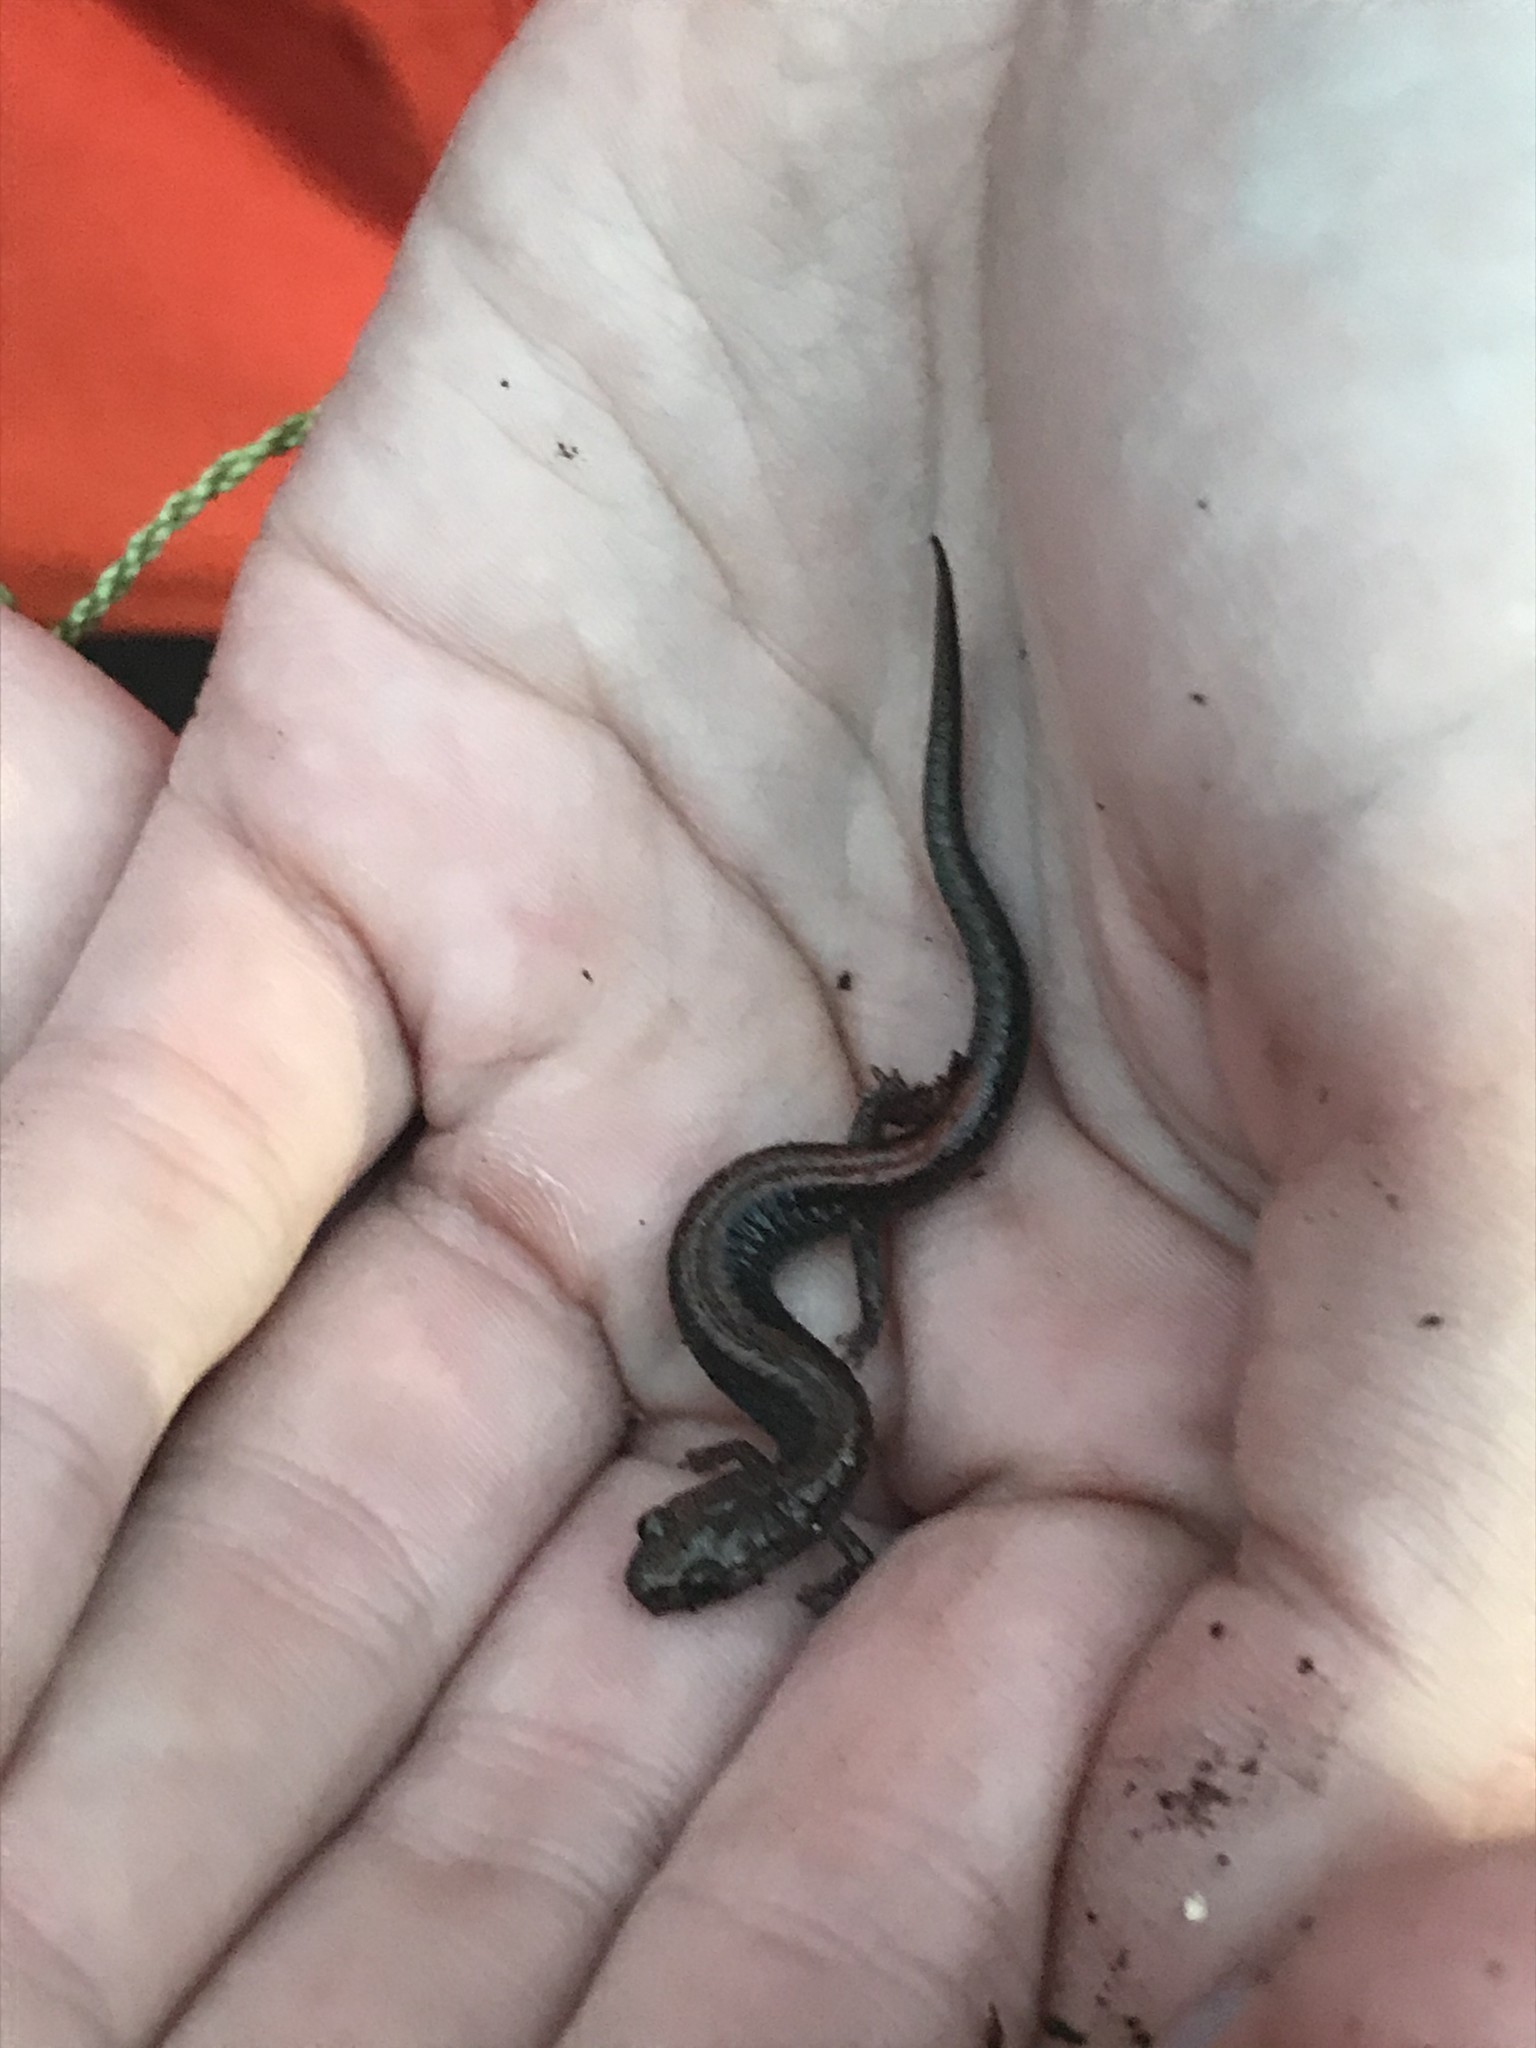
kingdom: Animalia
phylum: Chordata
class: Amphibia
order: Caudata
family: Plethodontidae
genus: Plethodon
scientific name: Plethodon cinereus
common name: Redback salamander
